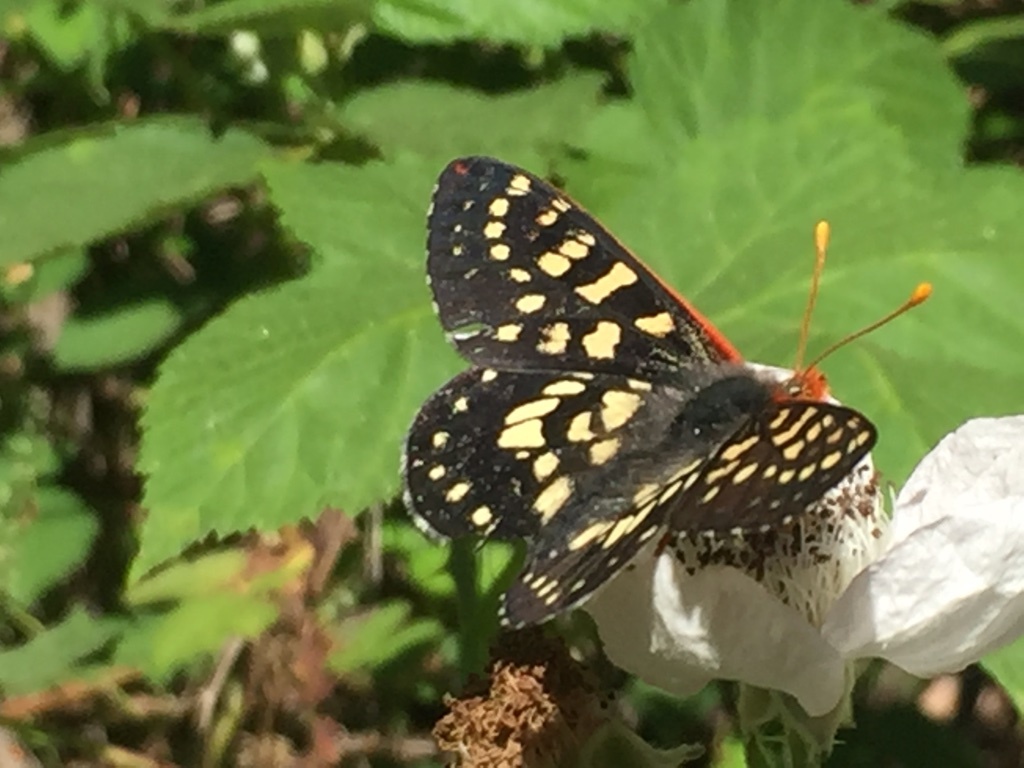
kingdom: Animalia
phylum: Arthropoda
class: Insecta
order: Lepidoptera
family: Nymphalidae
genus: Occidryas
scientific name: Occidryas chalcedona
